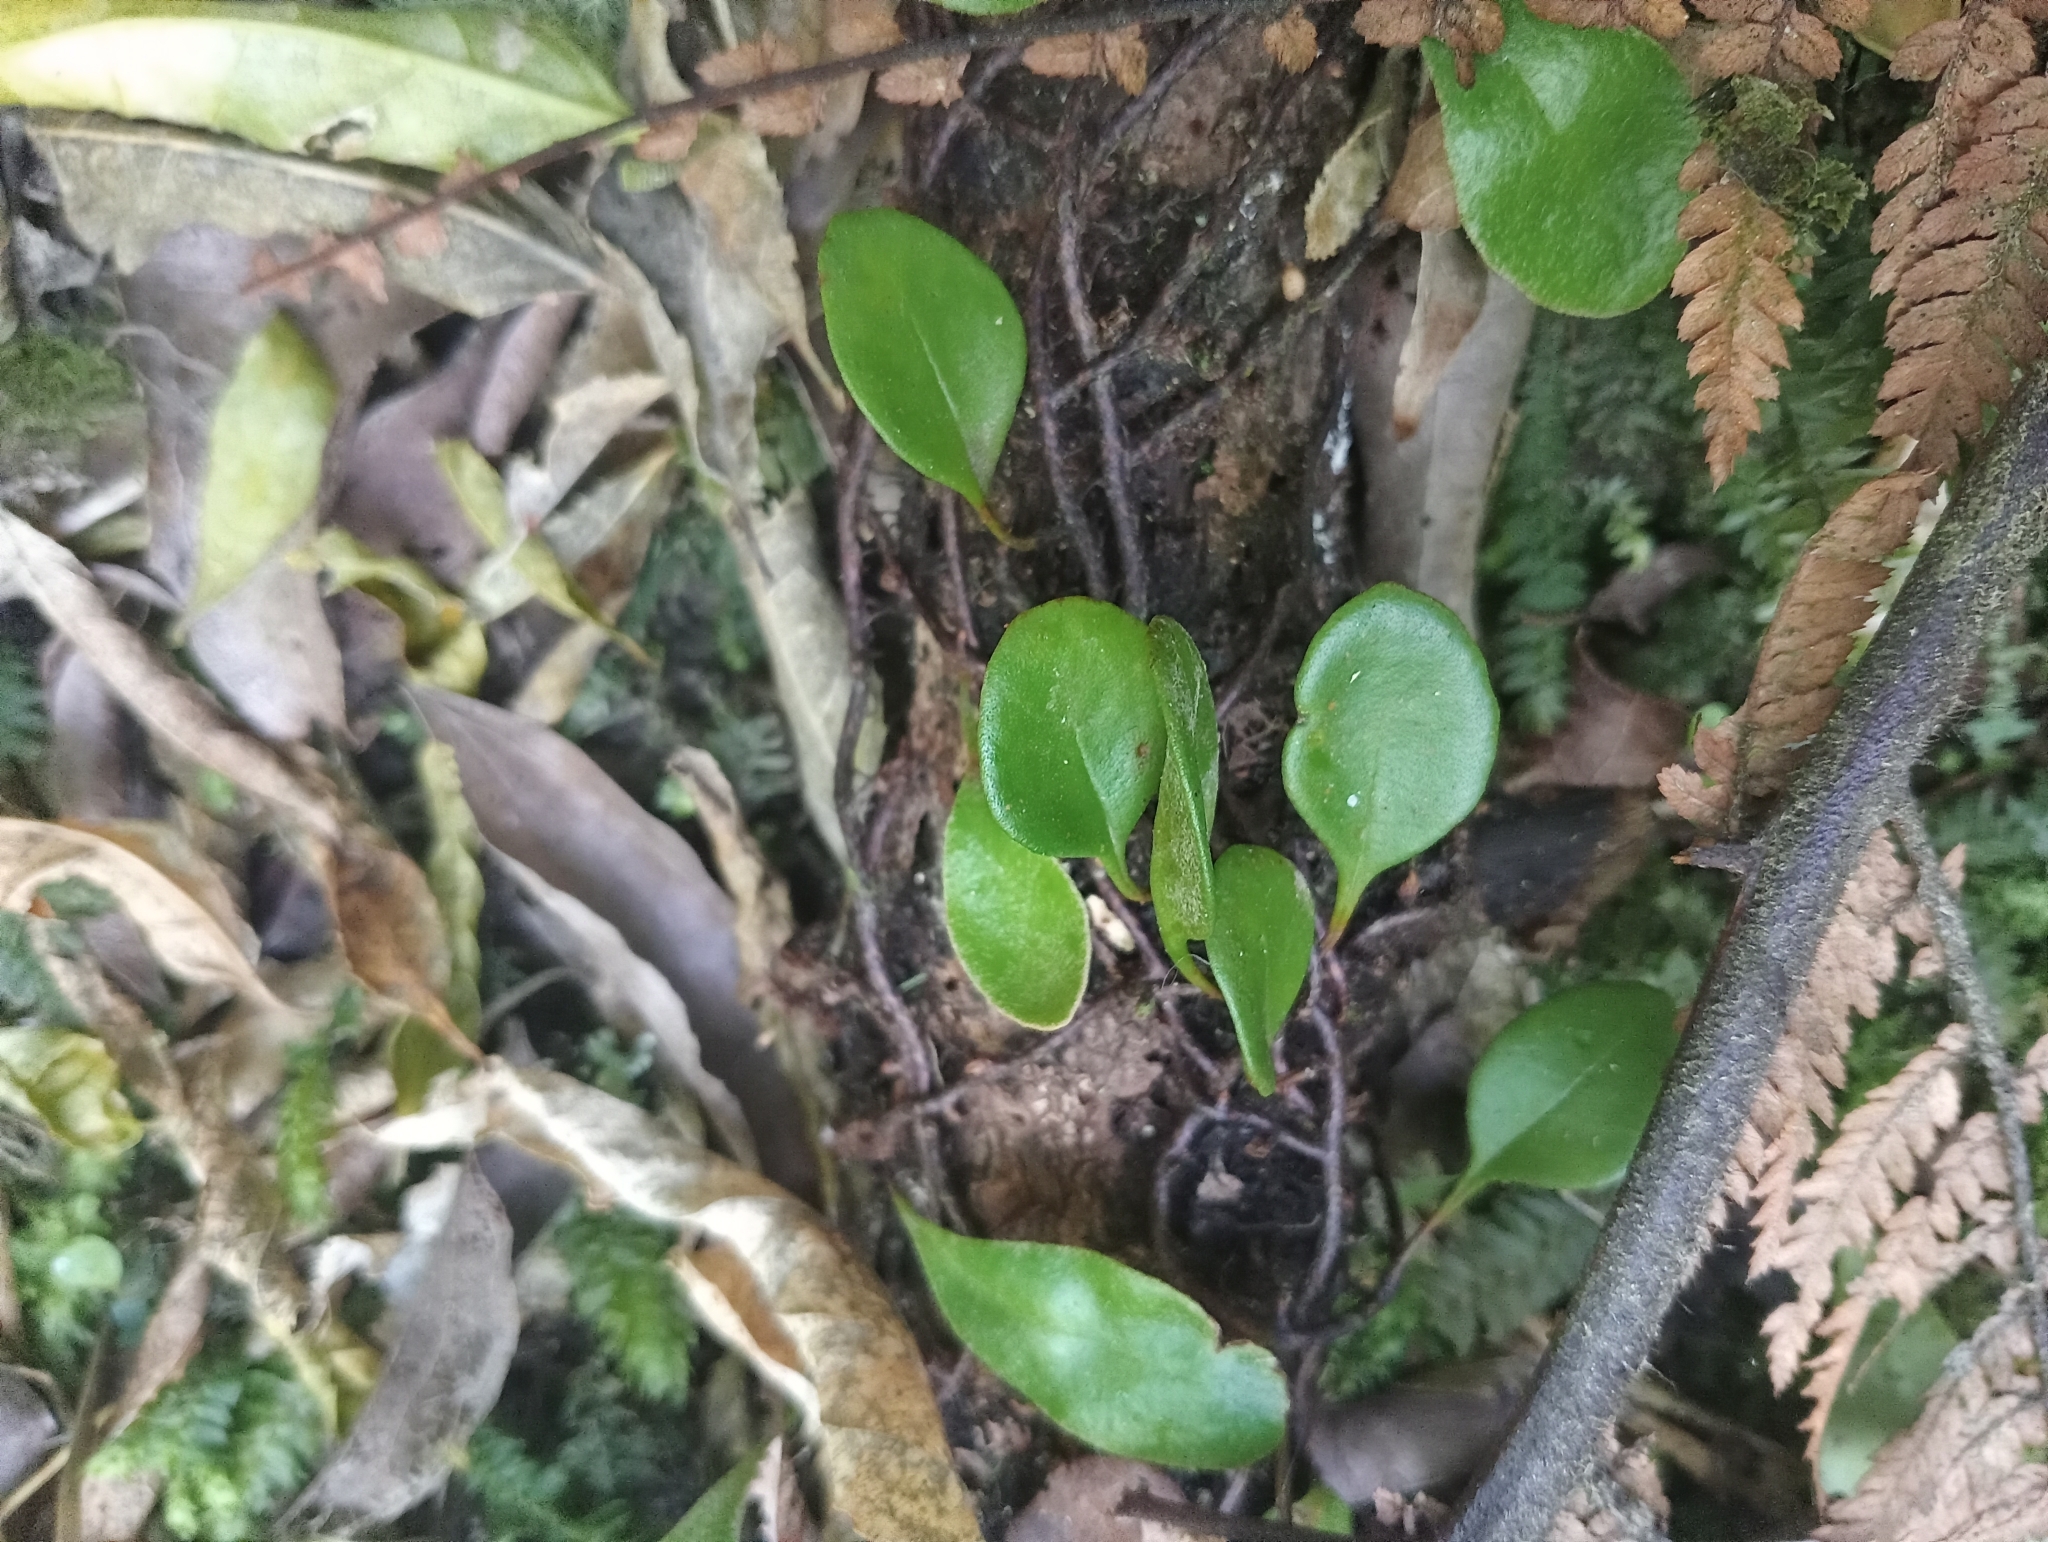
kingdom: Plantae
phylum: Tracheophyta
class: Polypodiopsida
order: Polypodiales
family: Polypodiaceae
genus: Pyrrosia
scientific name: Pyrrosia eleagnifolia
